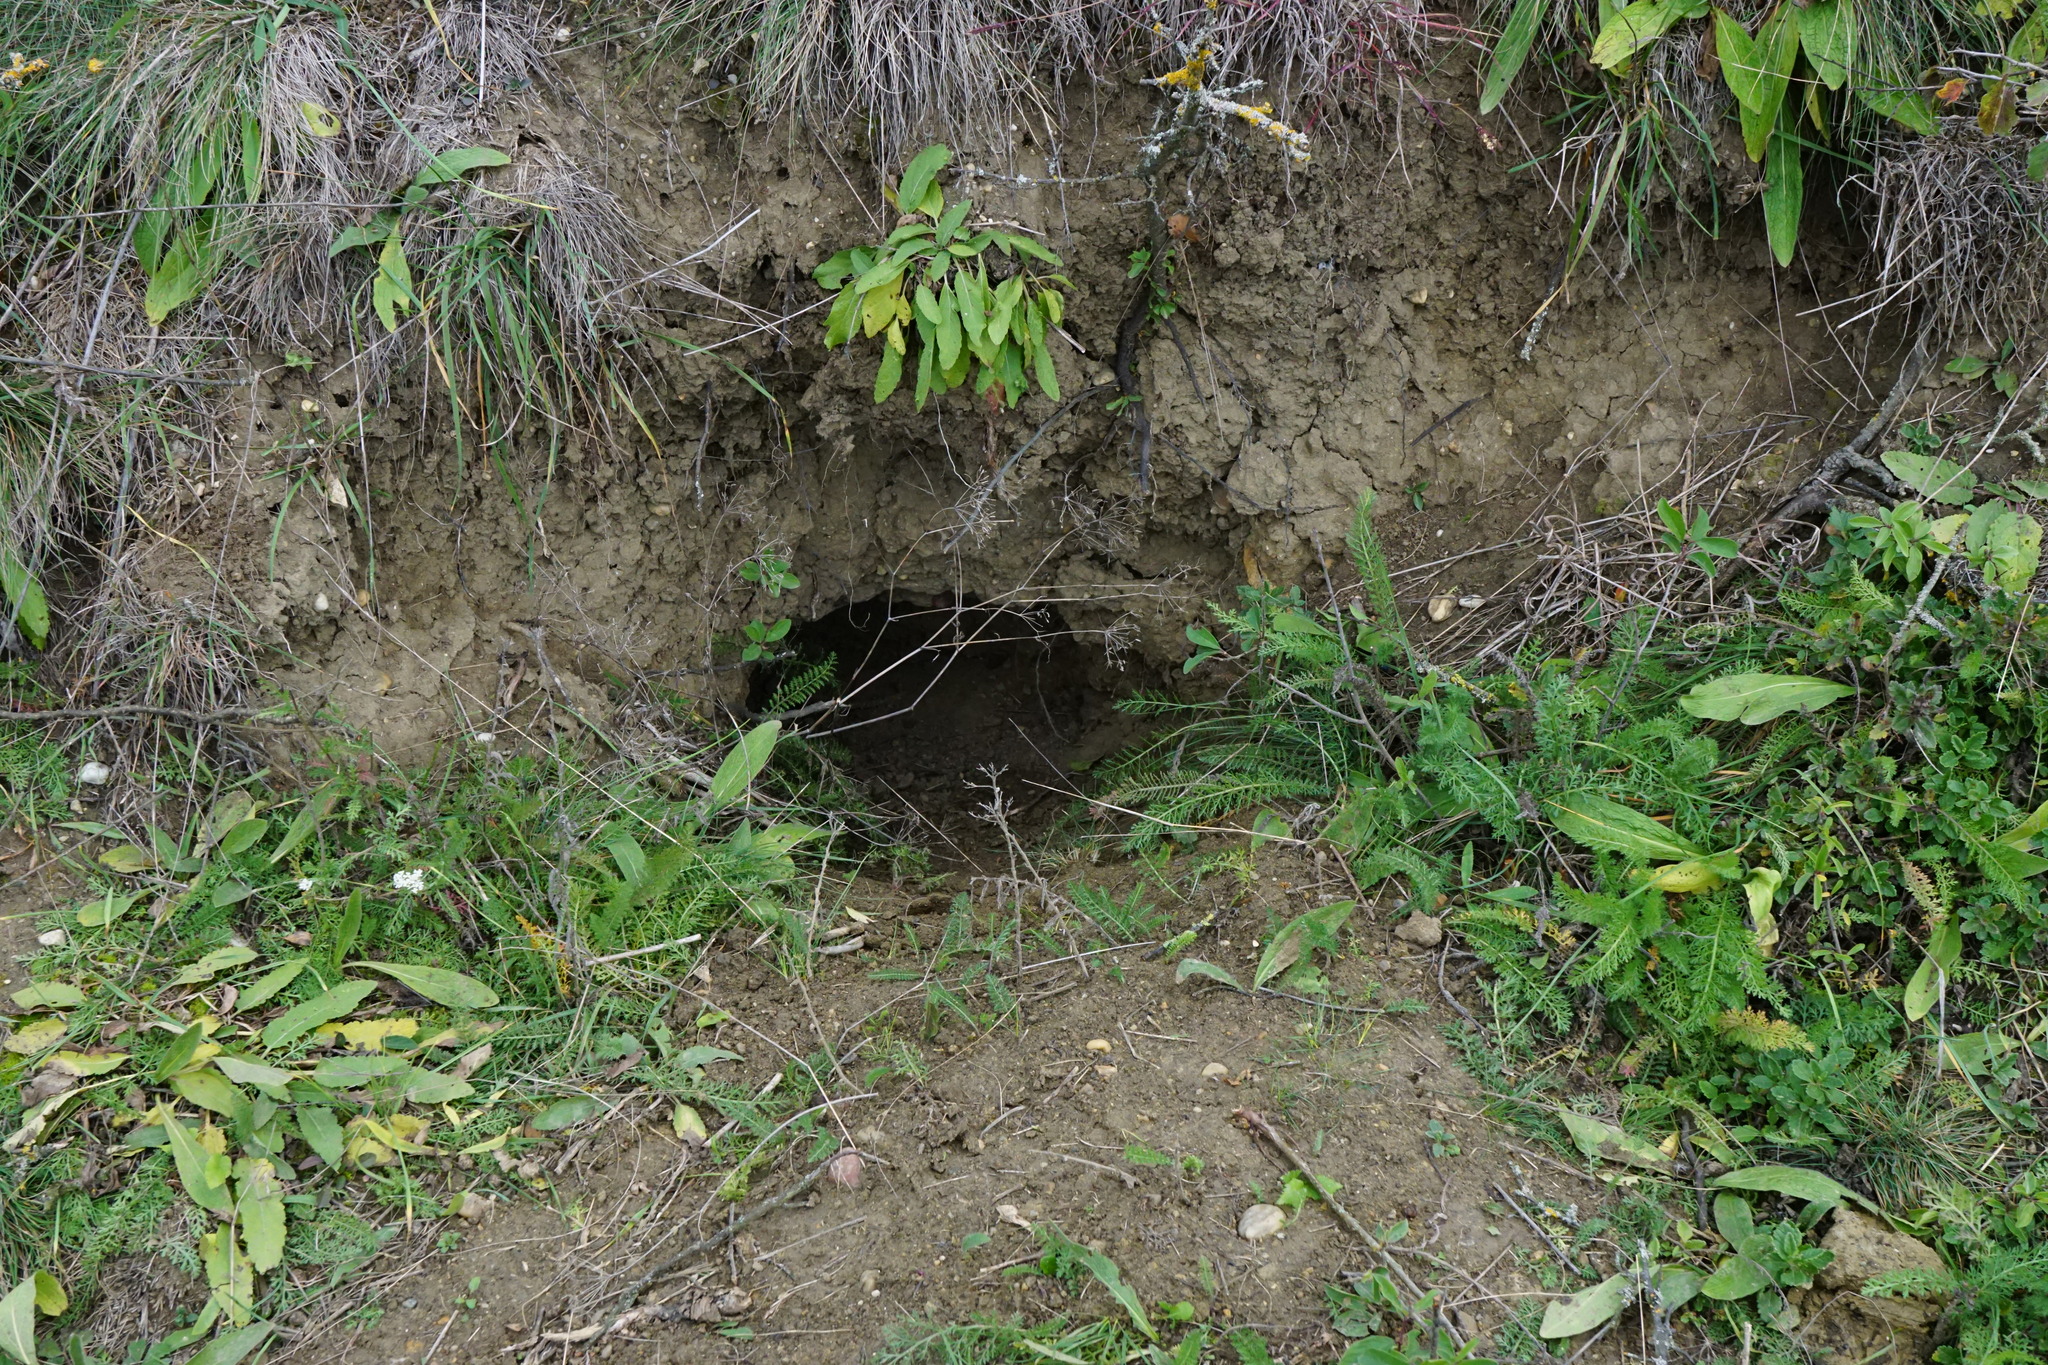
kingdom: Animalia
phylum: Chordata
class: Mammalia
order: Carnivora
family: Mustelidae
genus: Meles
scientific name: Meles meles
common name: Eurasian badger
